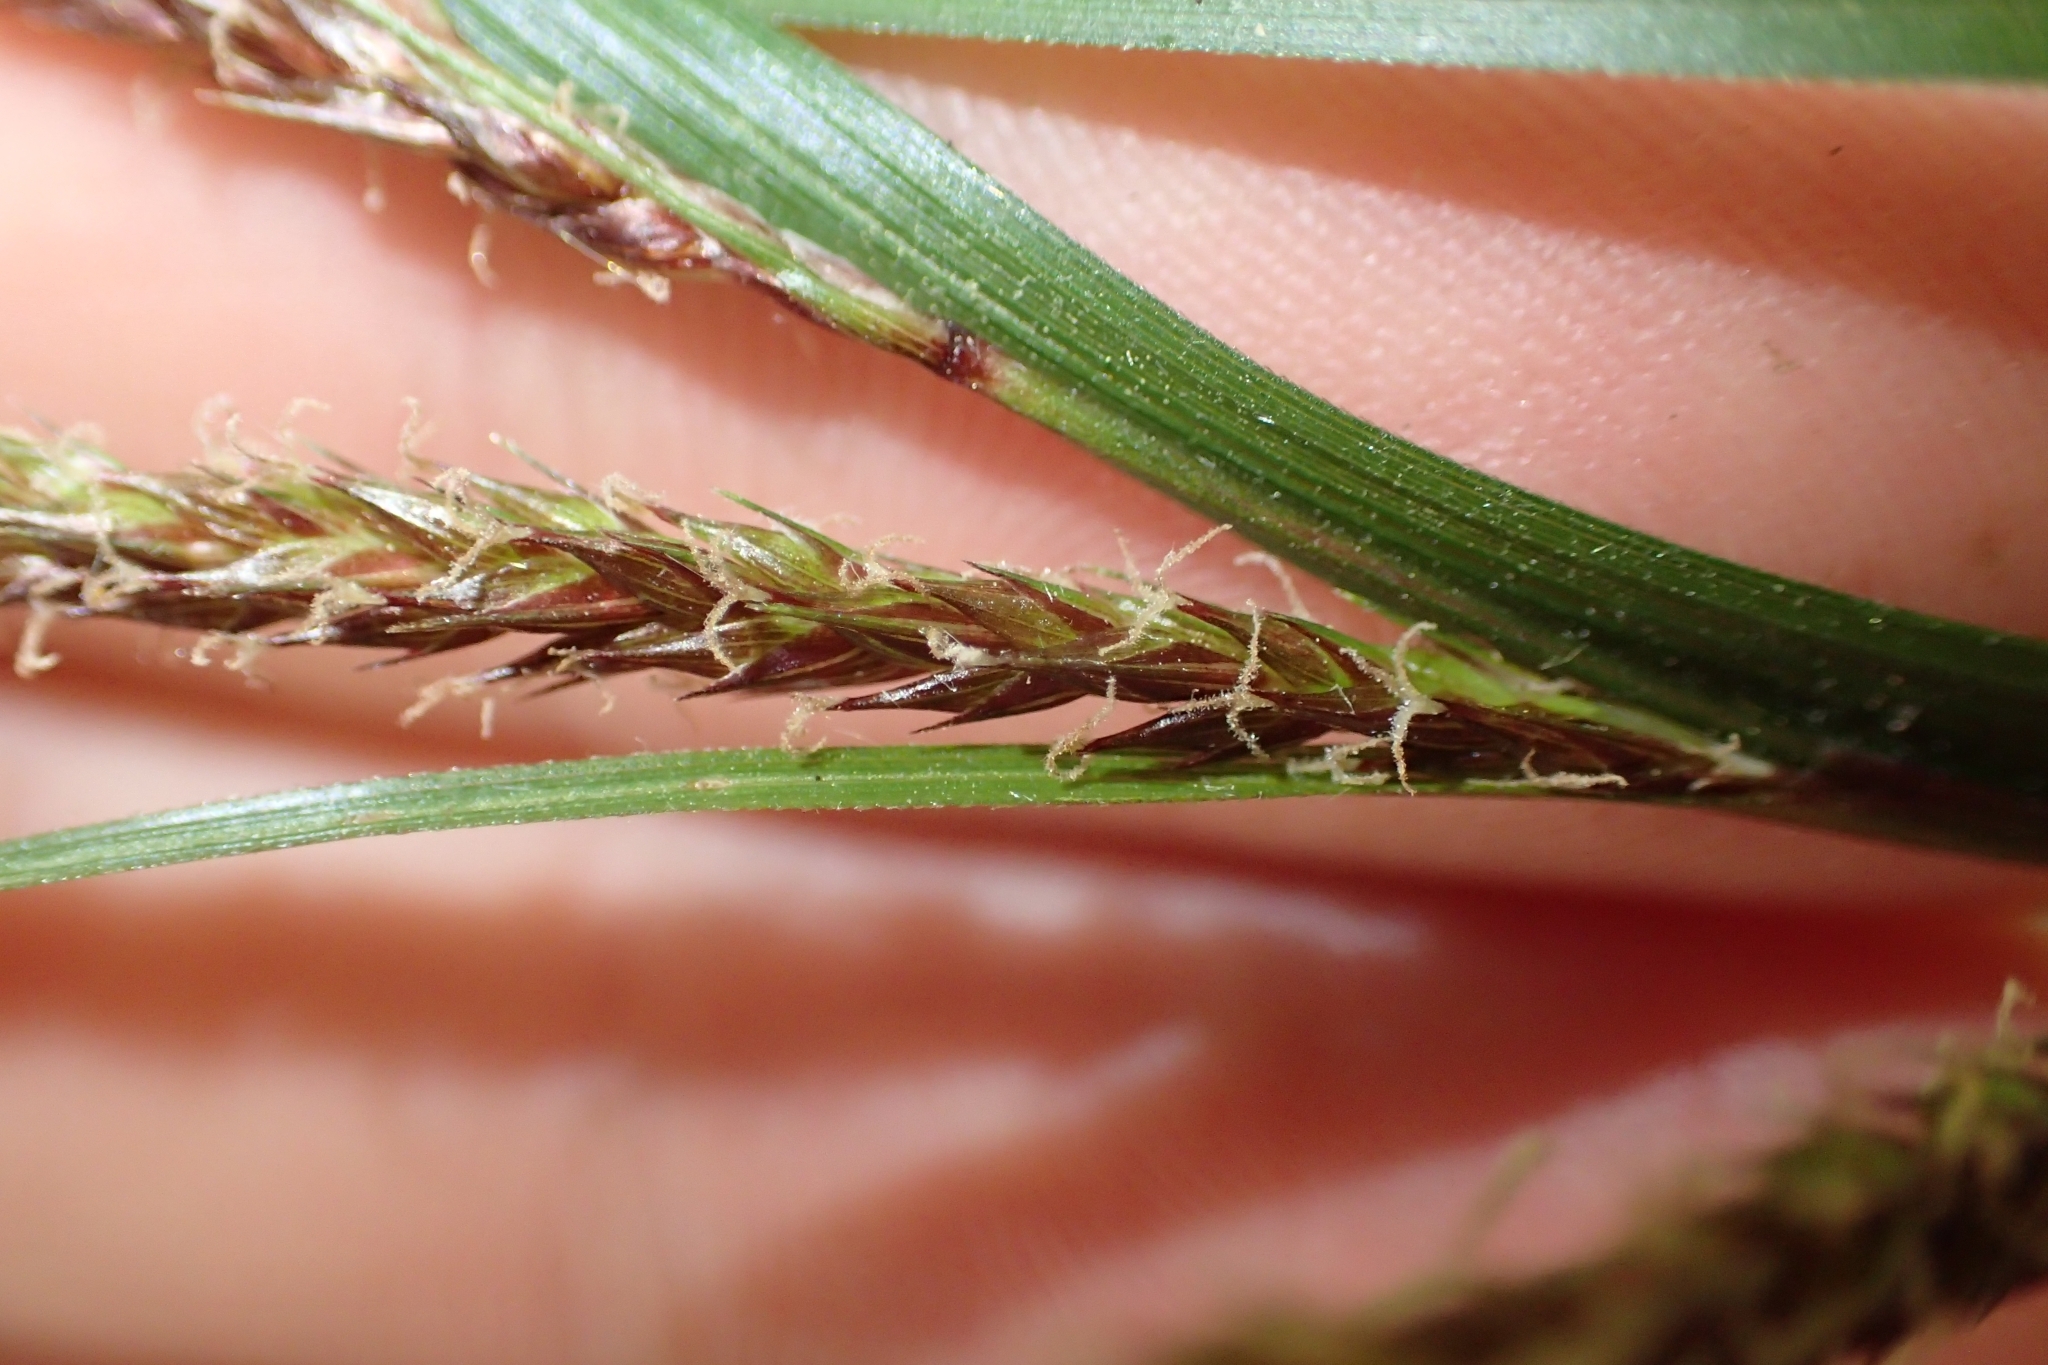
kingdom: Plantae
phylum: Tracheophyta
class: Liliopsida
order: Poales
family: Cyperaceae
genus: Carex
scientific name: Carex spinirostris
